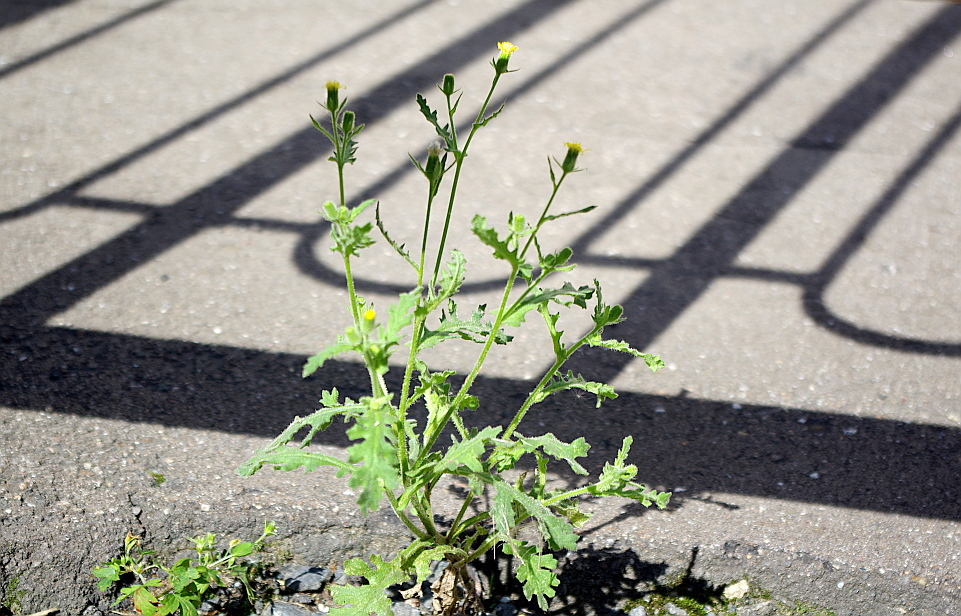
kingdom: Plantae
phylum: Tracheophyta
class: Magnoliopsida
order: Asterales
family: Asteraceae
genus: Senecio
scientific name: Senecio viscosus
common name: Sticky groundsel
